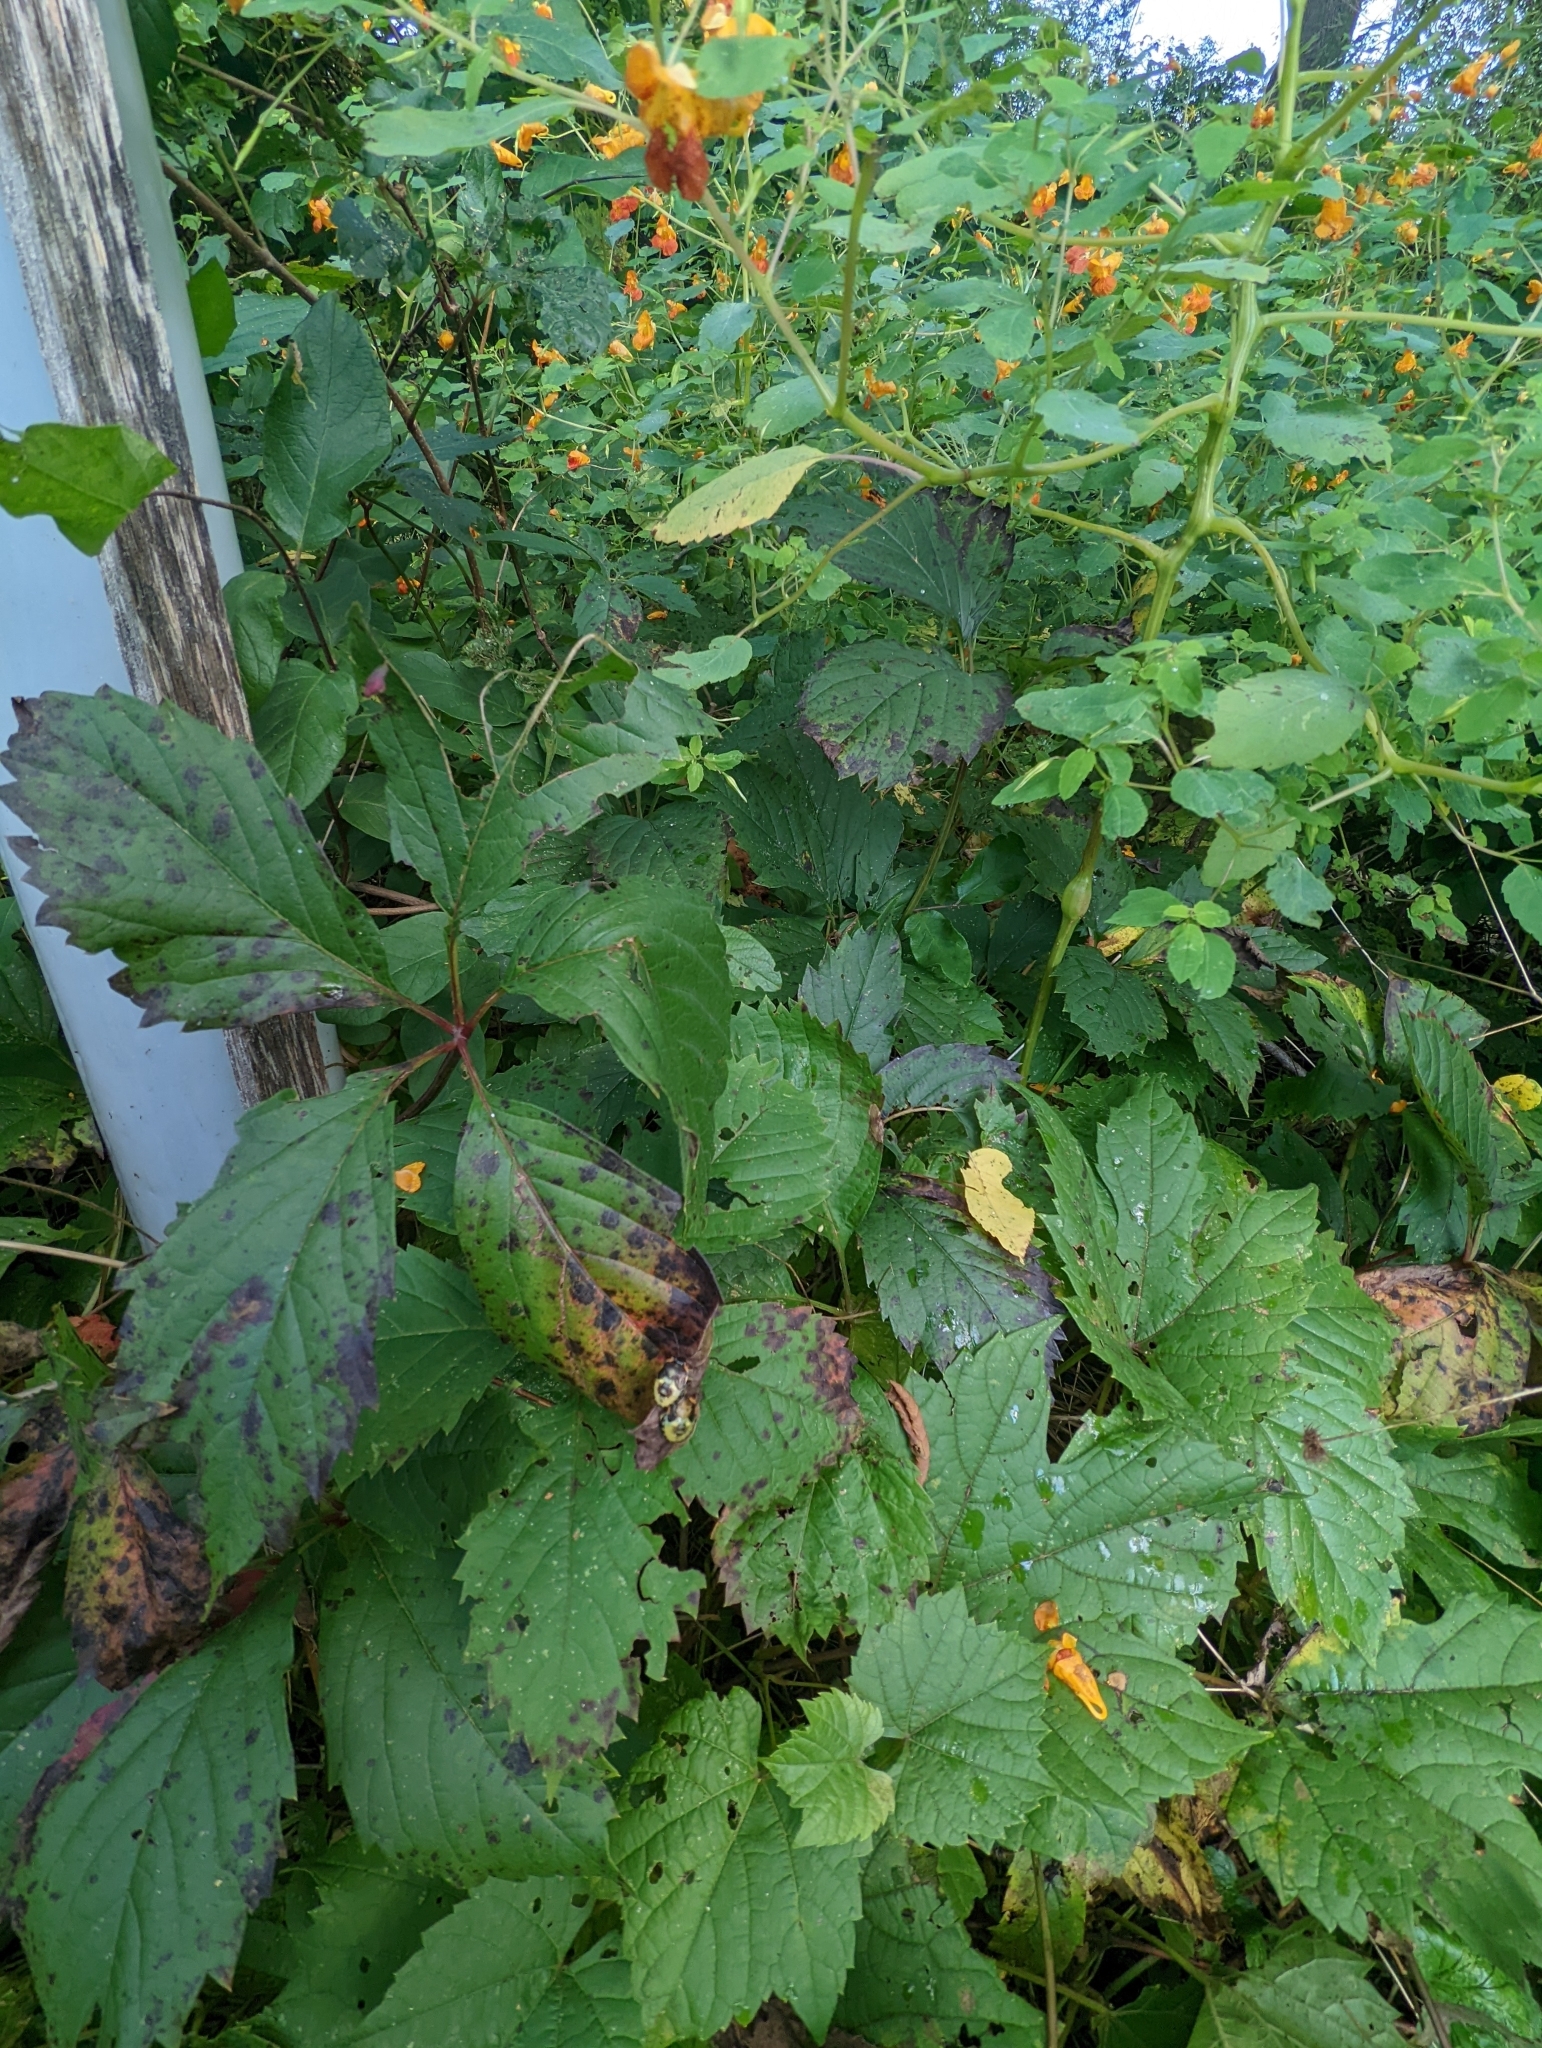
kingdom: Animalia
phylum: Arthropoda
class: Insecta
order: Hemiptera
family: Pentatomidae
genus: Chinavia
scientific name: Chinavia hilaris
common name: Green stink bug
